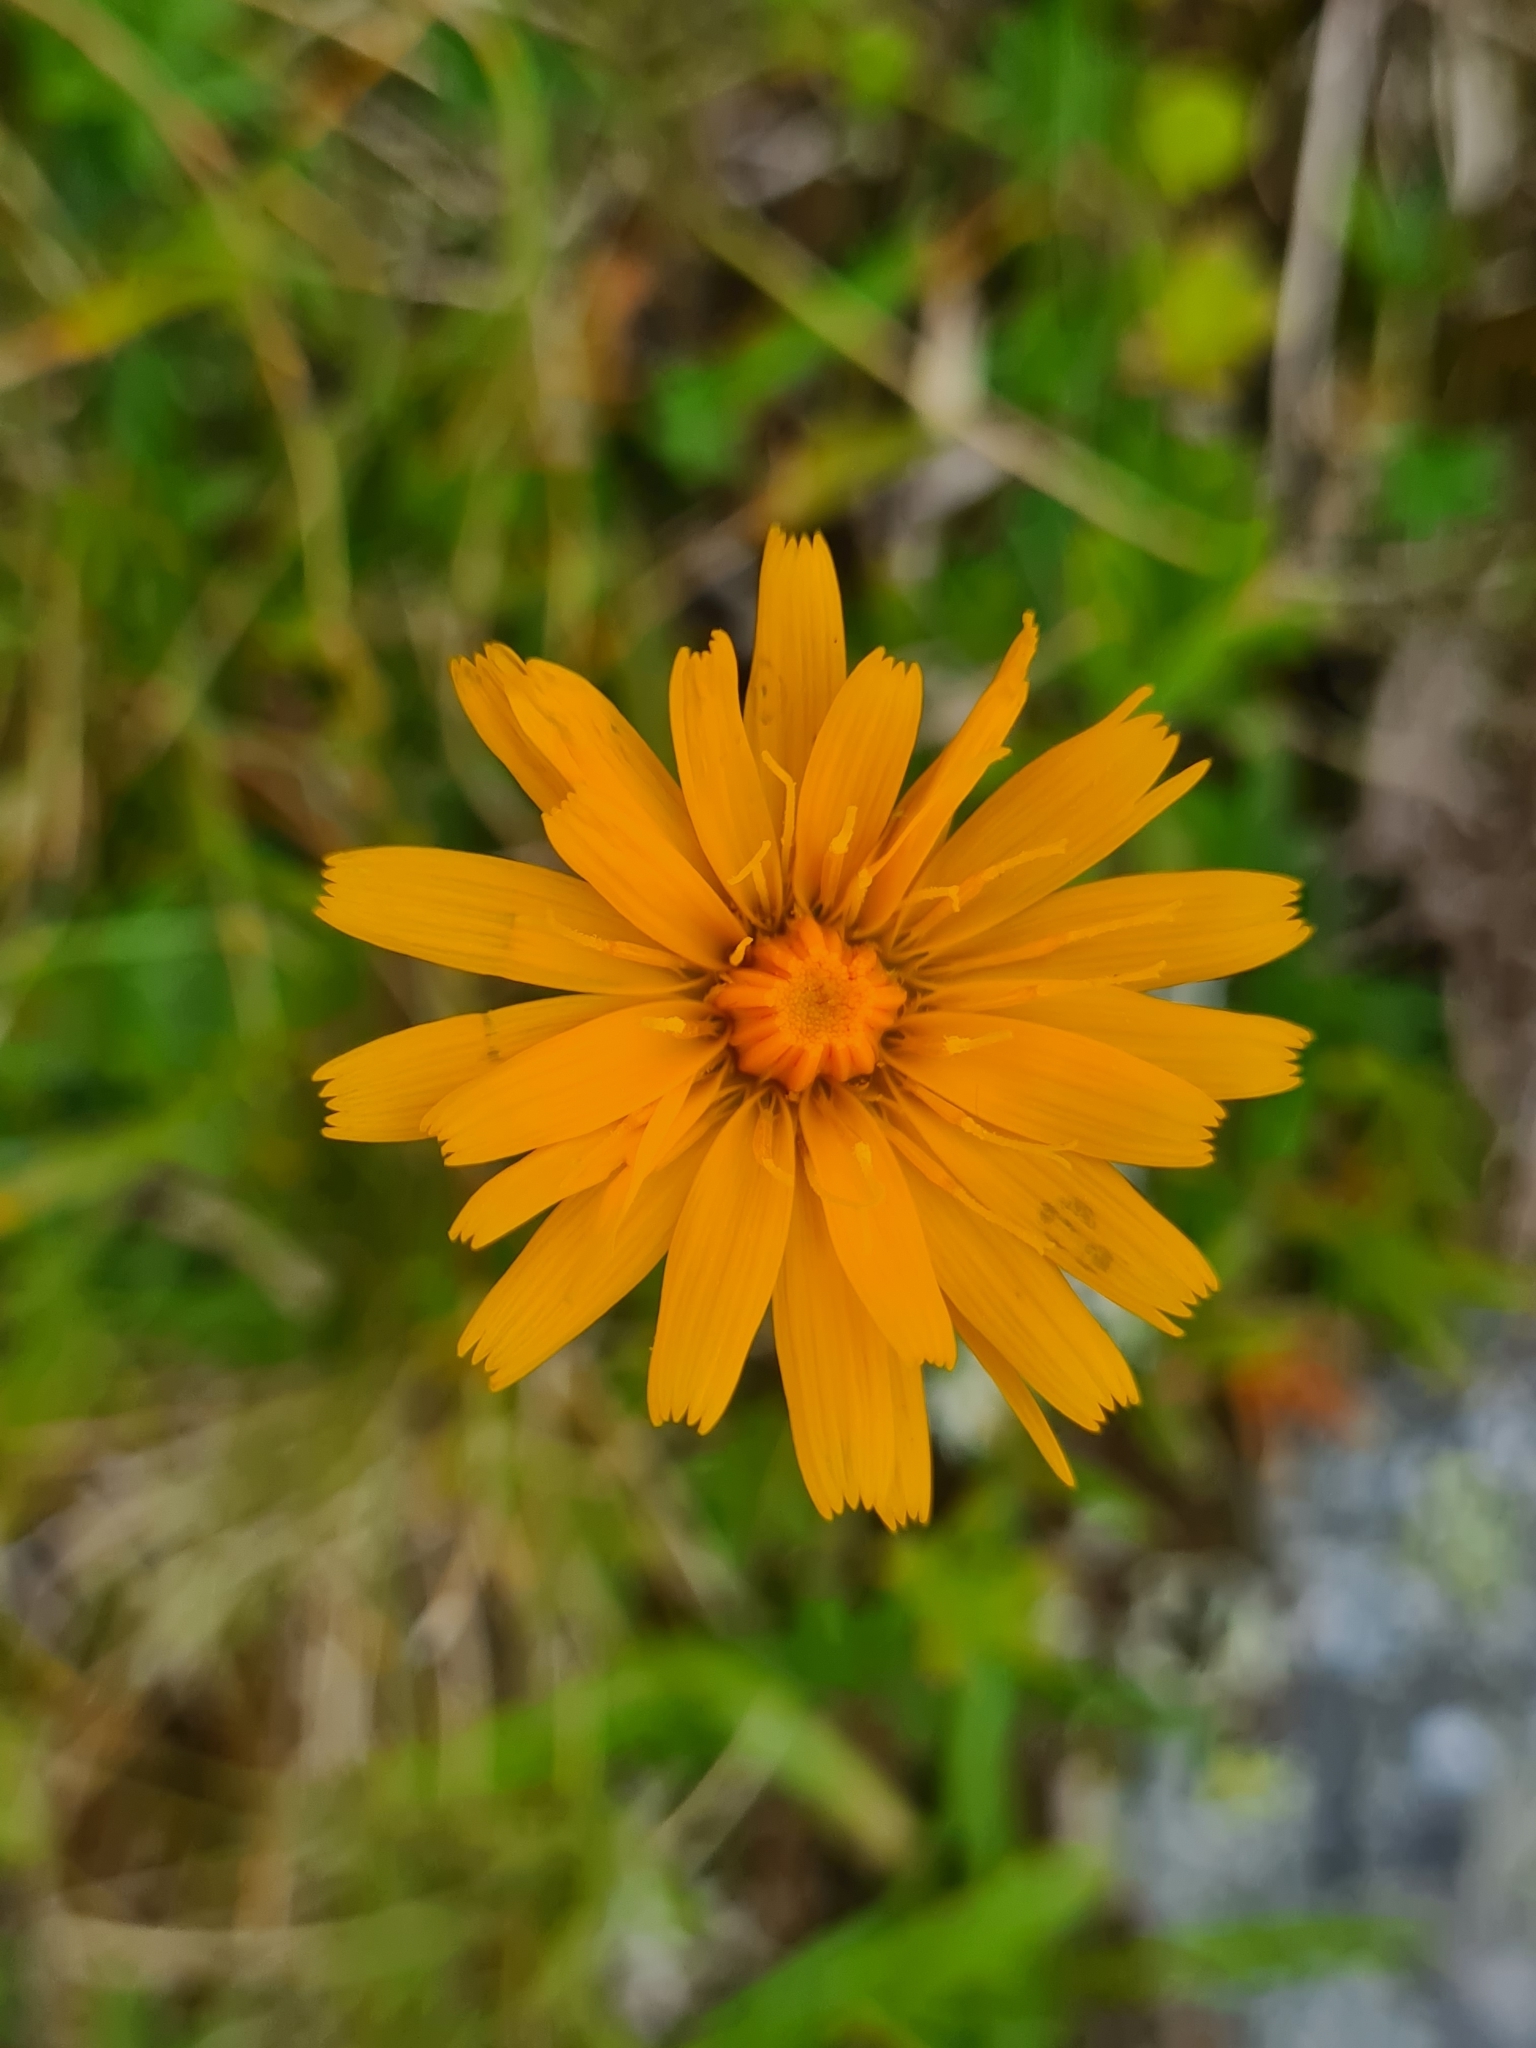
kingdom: Plantae
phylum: Tracheophyta
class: Magnoliopsida
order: Asterales
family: Asteraceae
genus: Crepis
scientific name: Crepis aurea
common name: Golden hawk's-beard
